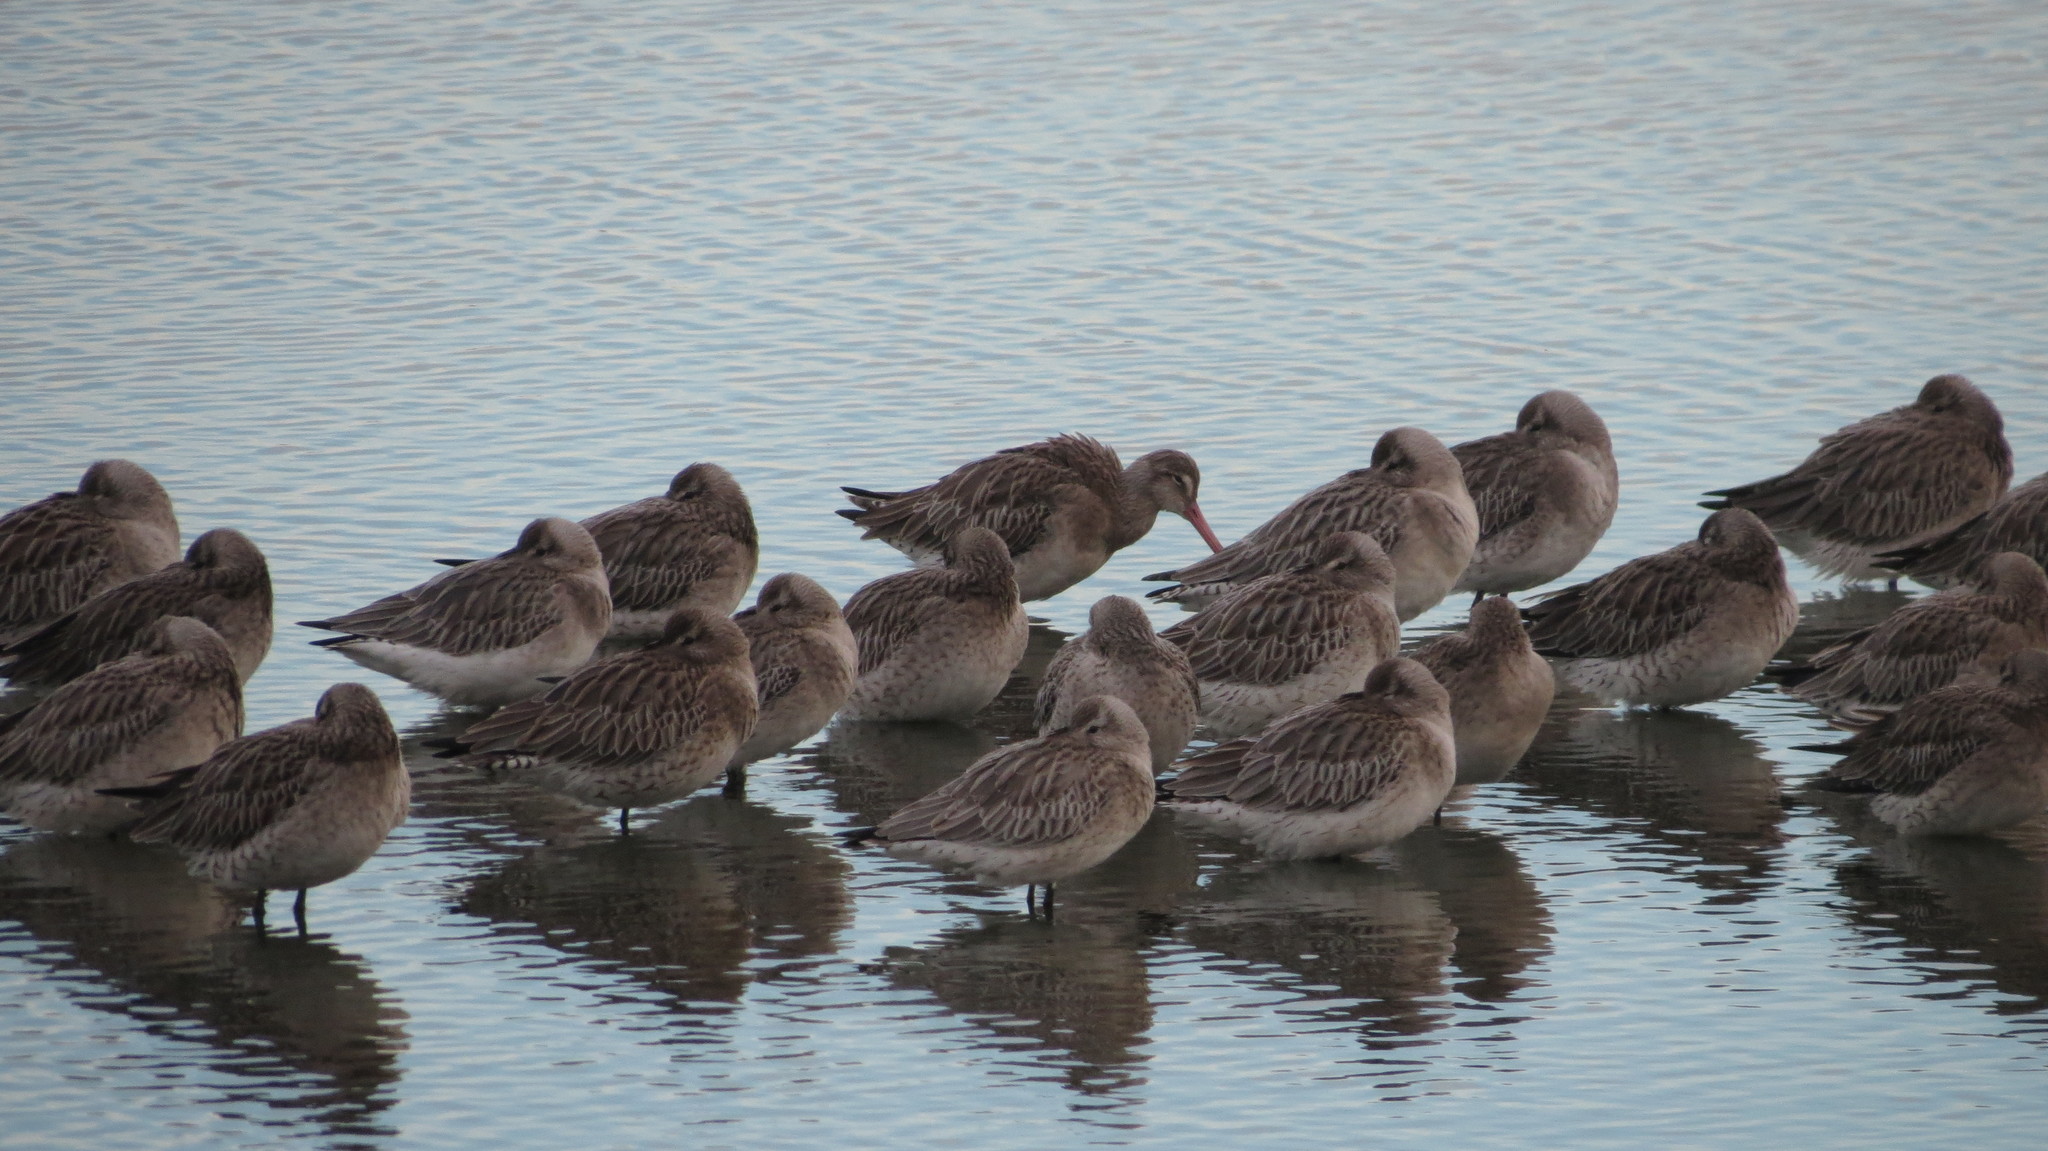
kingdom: Animalia
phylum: Chordata
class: Aves
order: Charadriiformes
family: Scolopacidae
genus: Limosa
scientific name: Limosa lapponica
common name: Bar-tailed godwit
